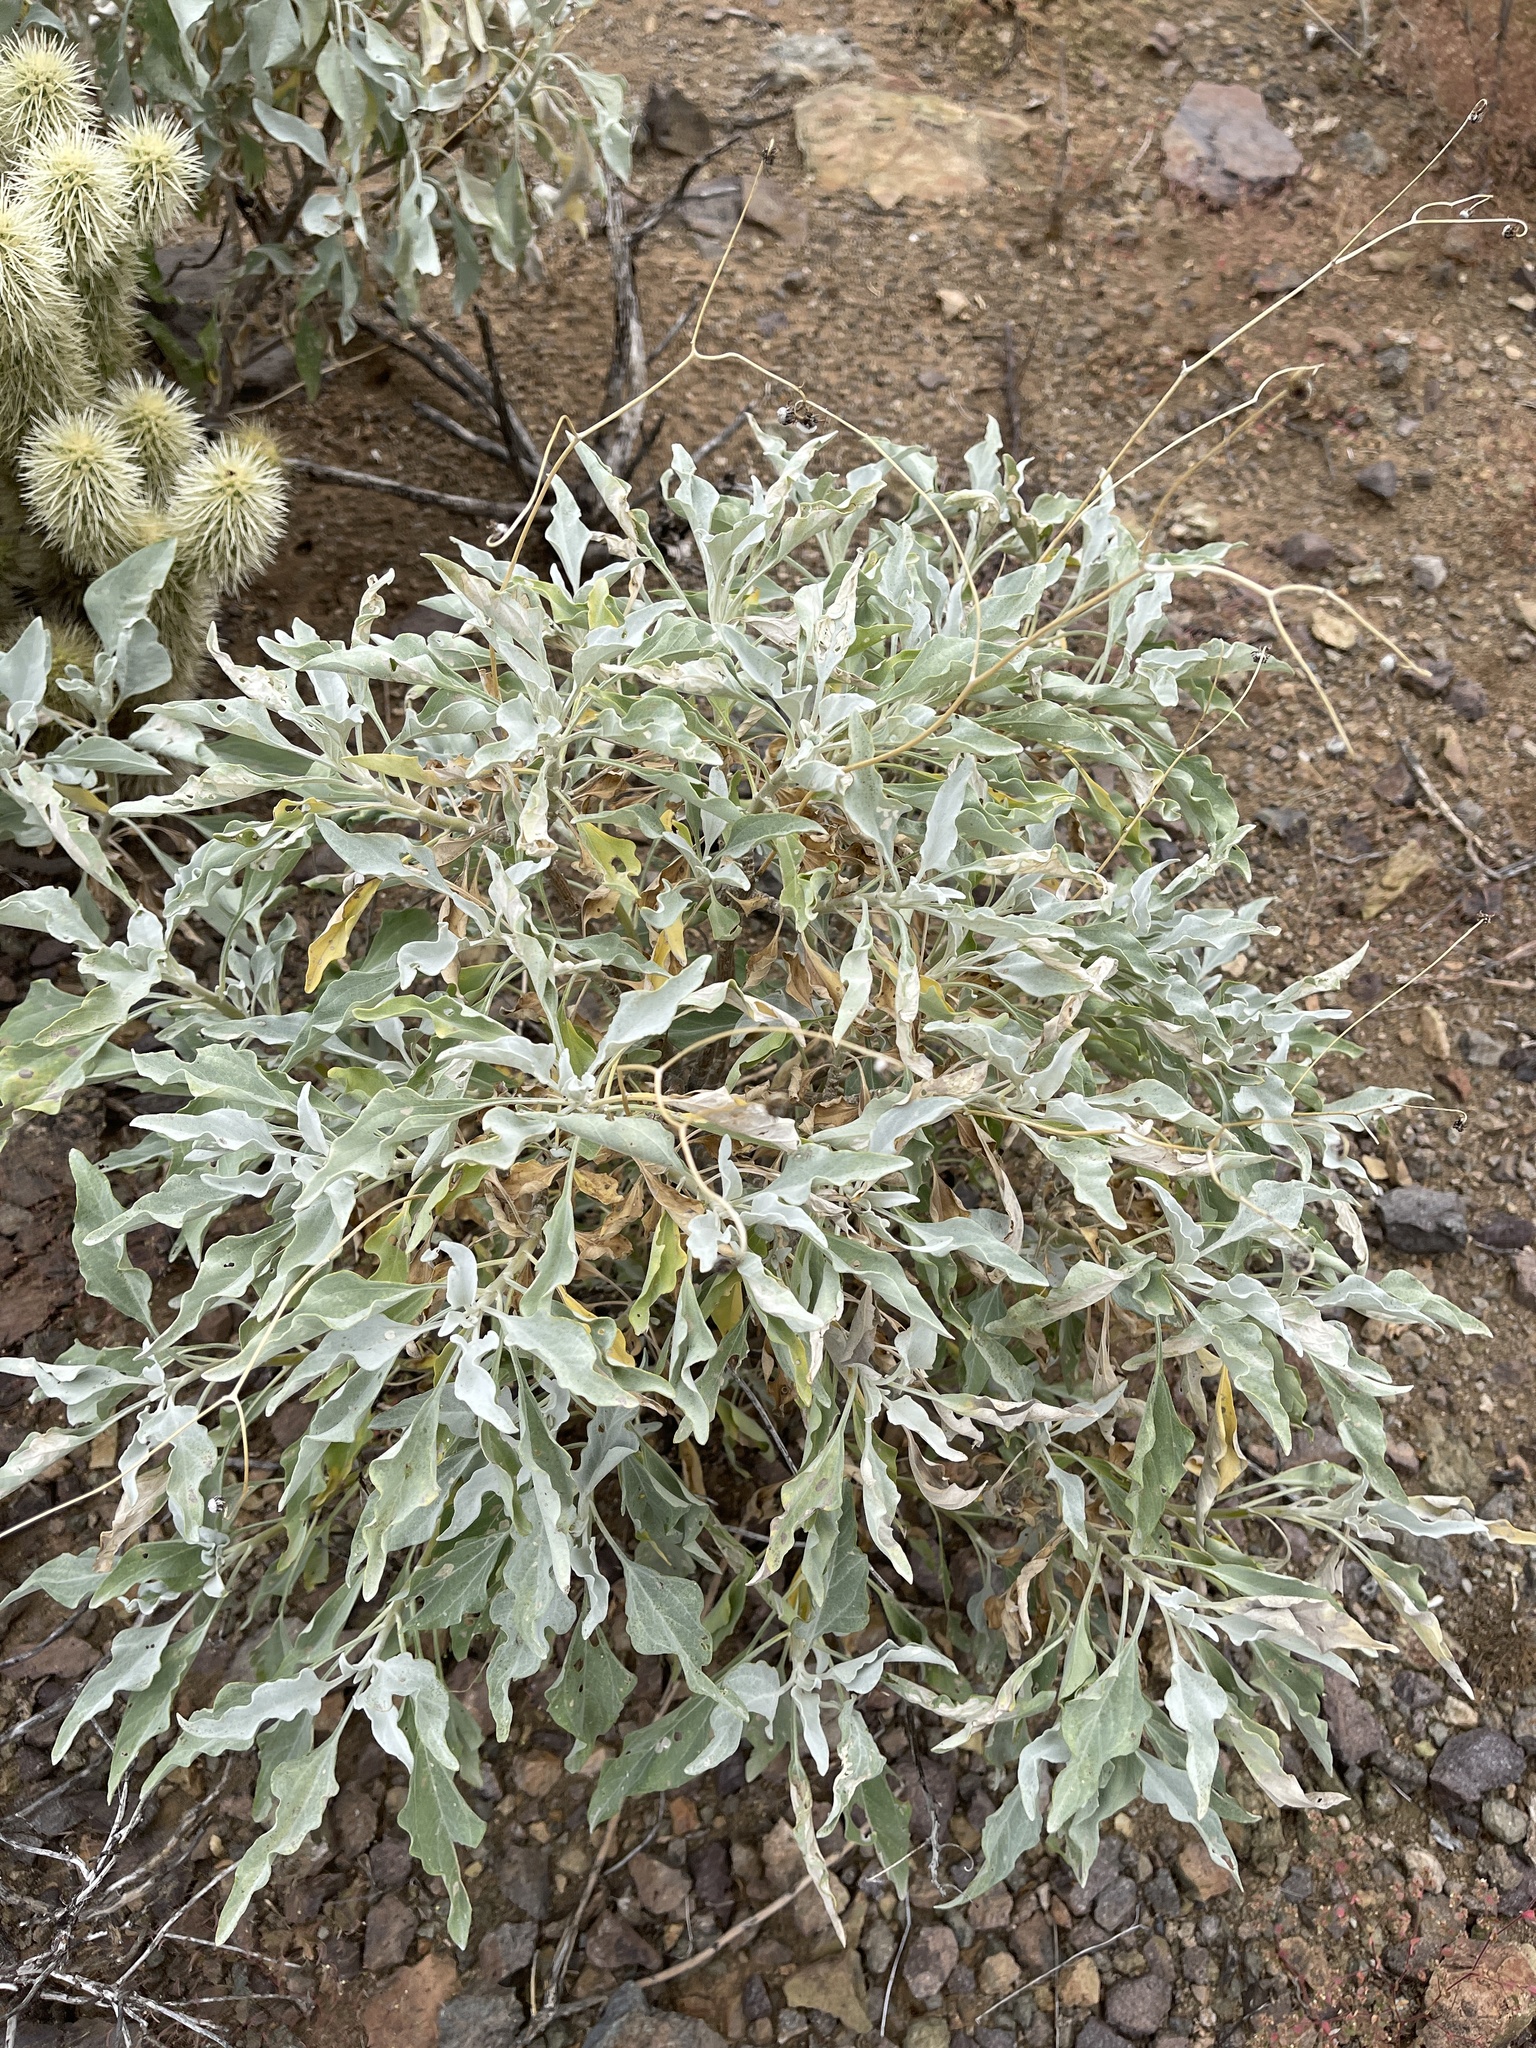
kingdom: Plantae
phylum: Tracheophyta
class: Magnoliopsida
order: Asterales
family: Asteraceae
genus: Encelia
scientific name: Encelia farinosa
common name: Brittlebush
